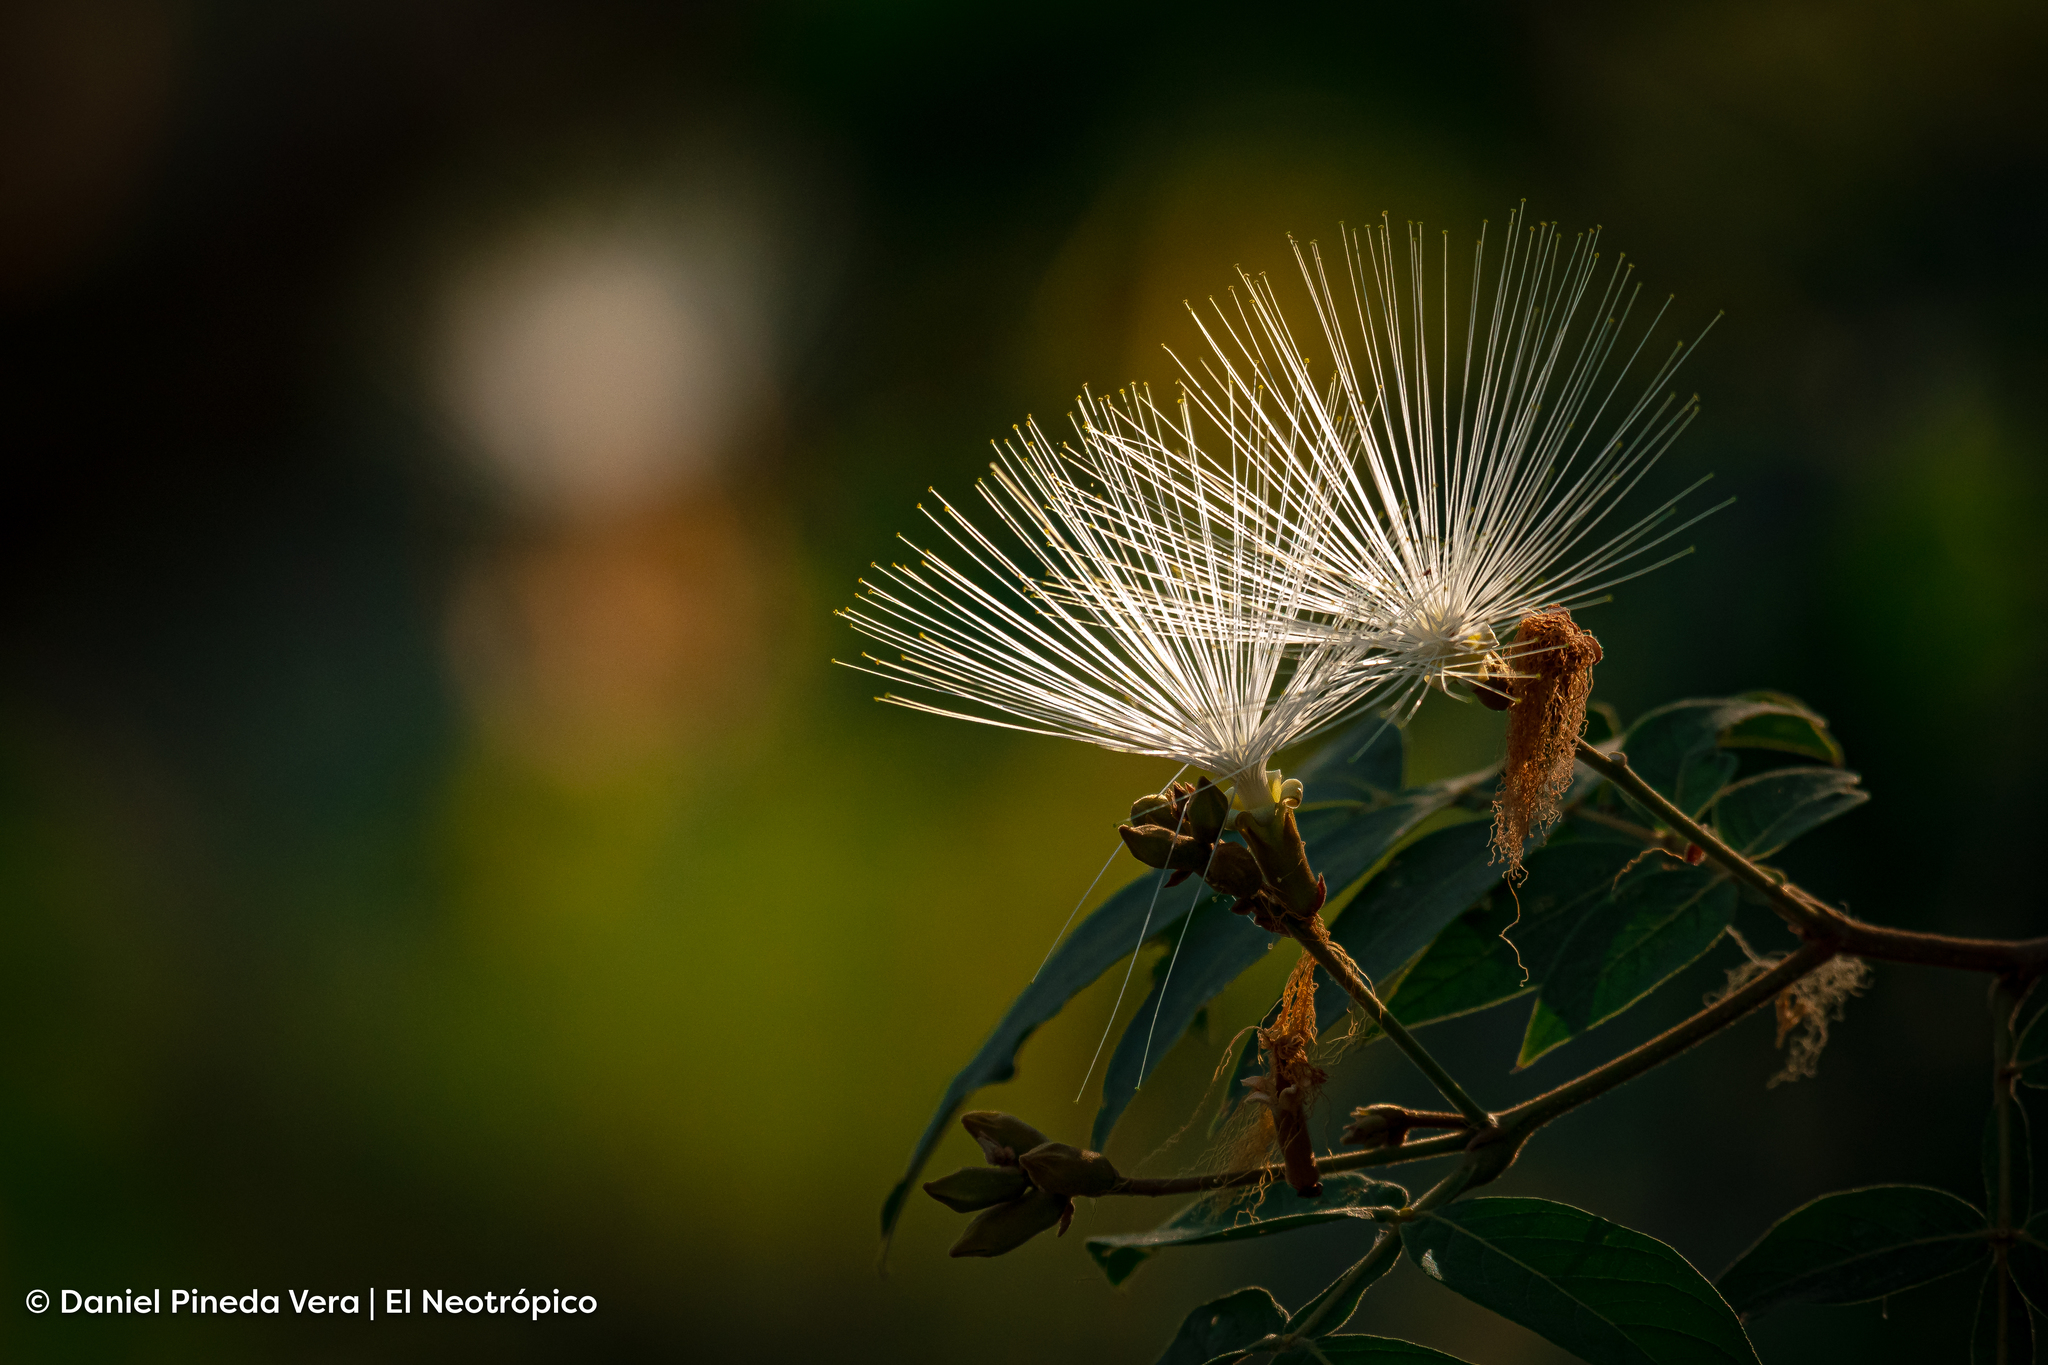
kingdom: Plantae
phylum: Tracheophyta
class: Magnoliopsida
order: Fabales
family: Fabaceae
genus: Inga
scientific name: Inga vera
